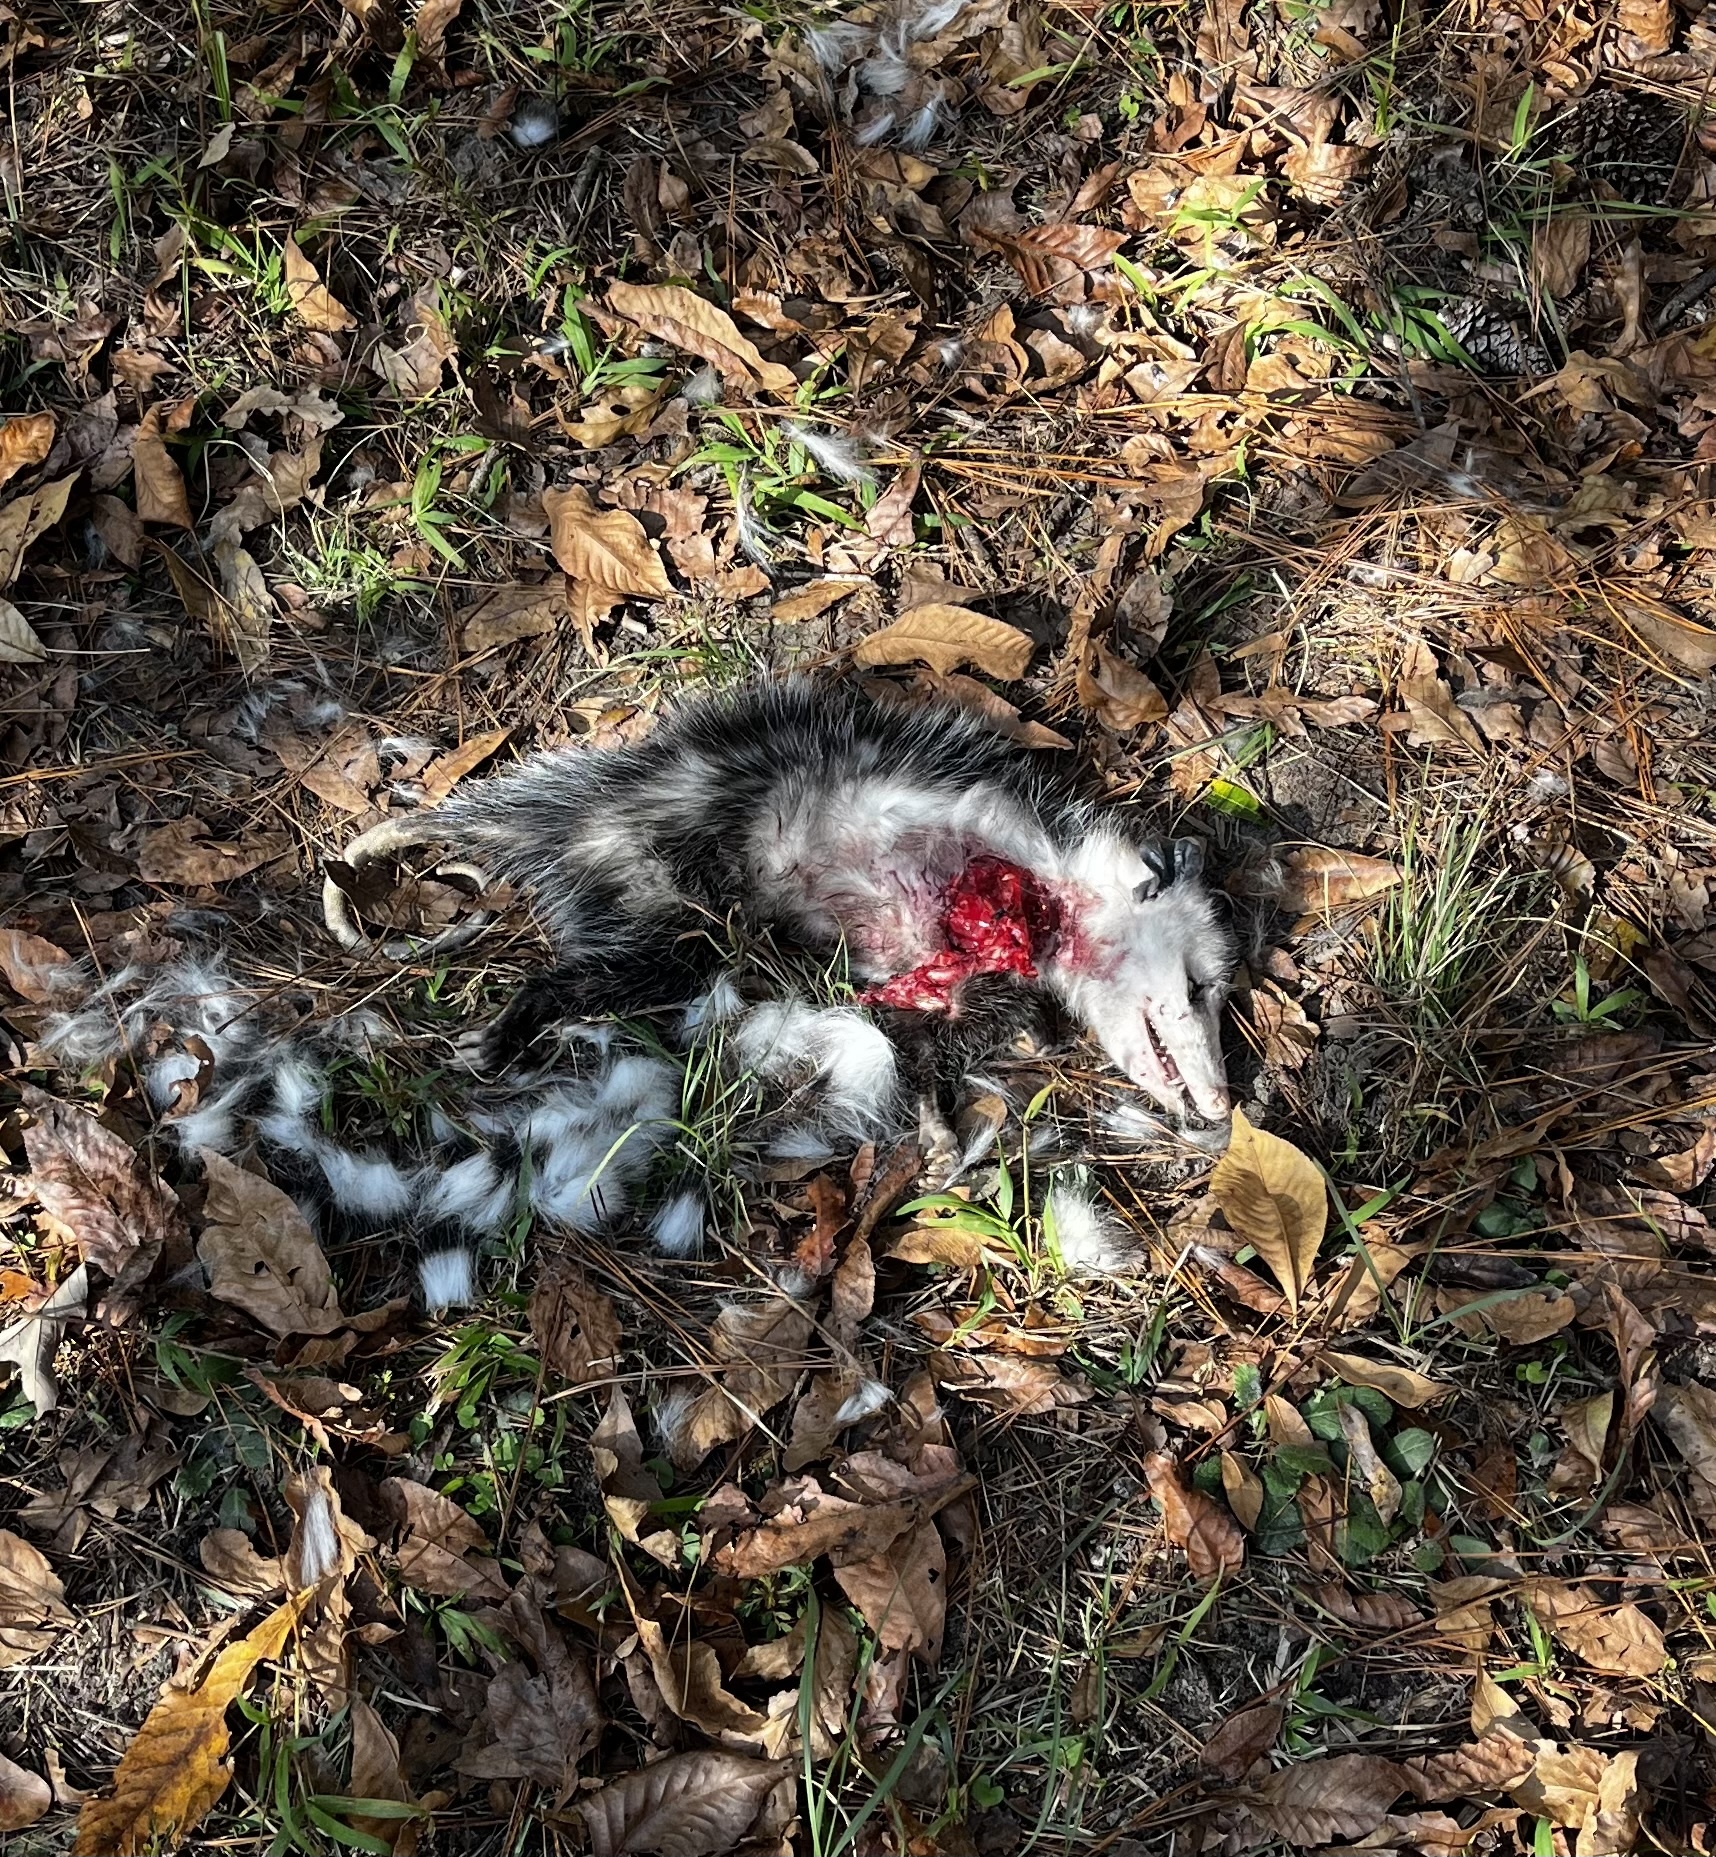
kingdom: Animalia
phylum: Chordata
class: Mammalia
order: Didelphimorphia
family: Didelphidae
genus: Didelphis
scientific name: Didelphis virginiana
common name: Virginia opossum
